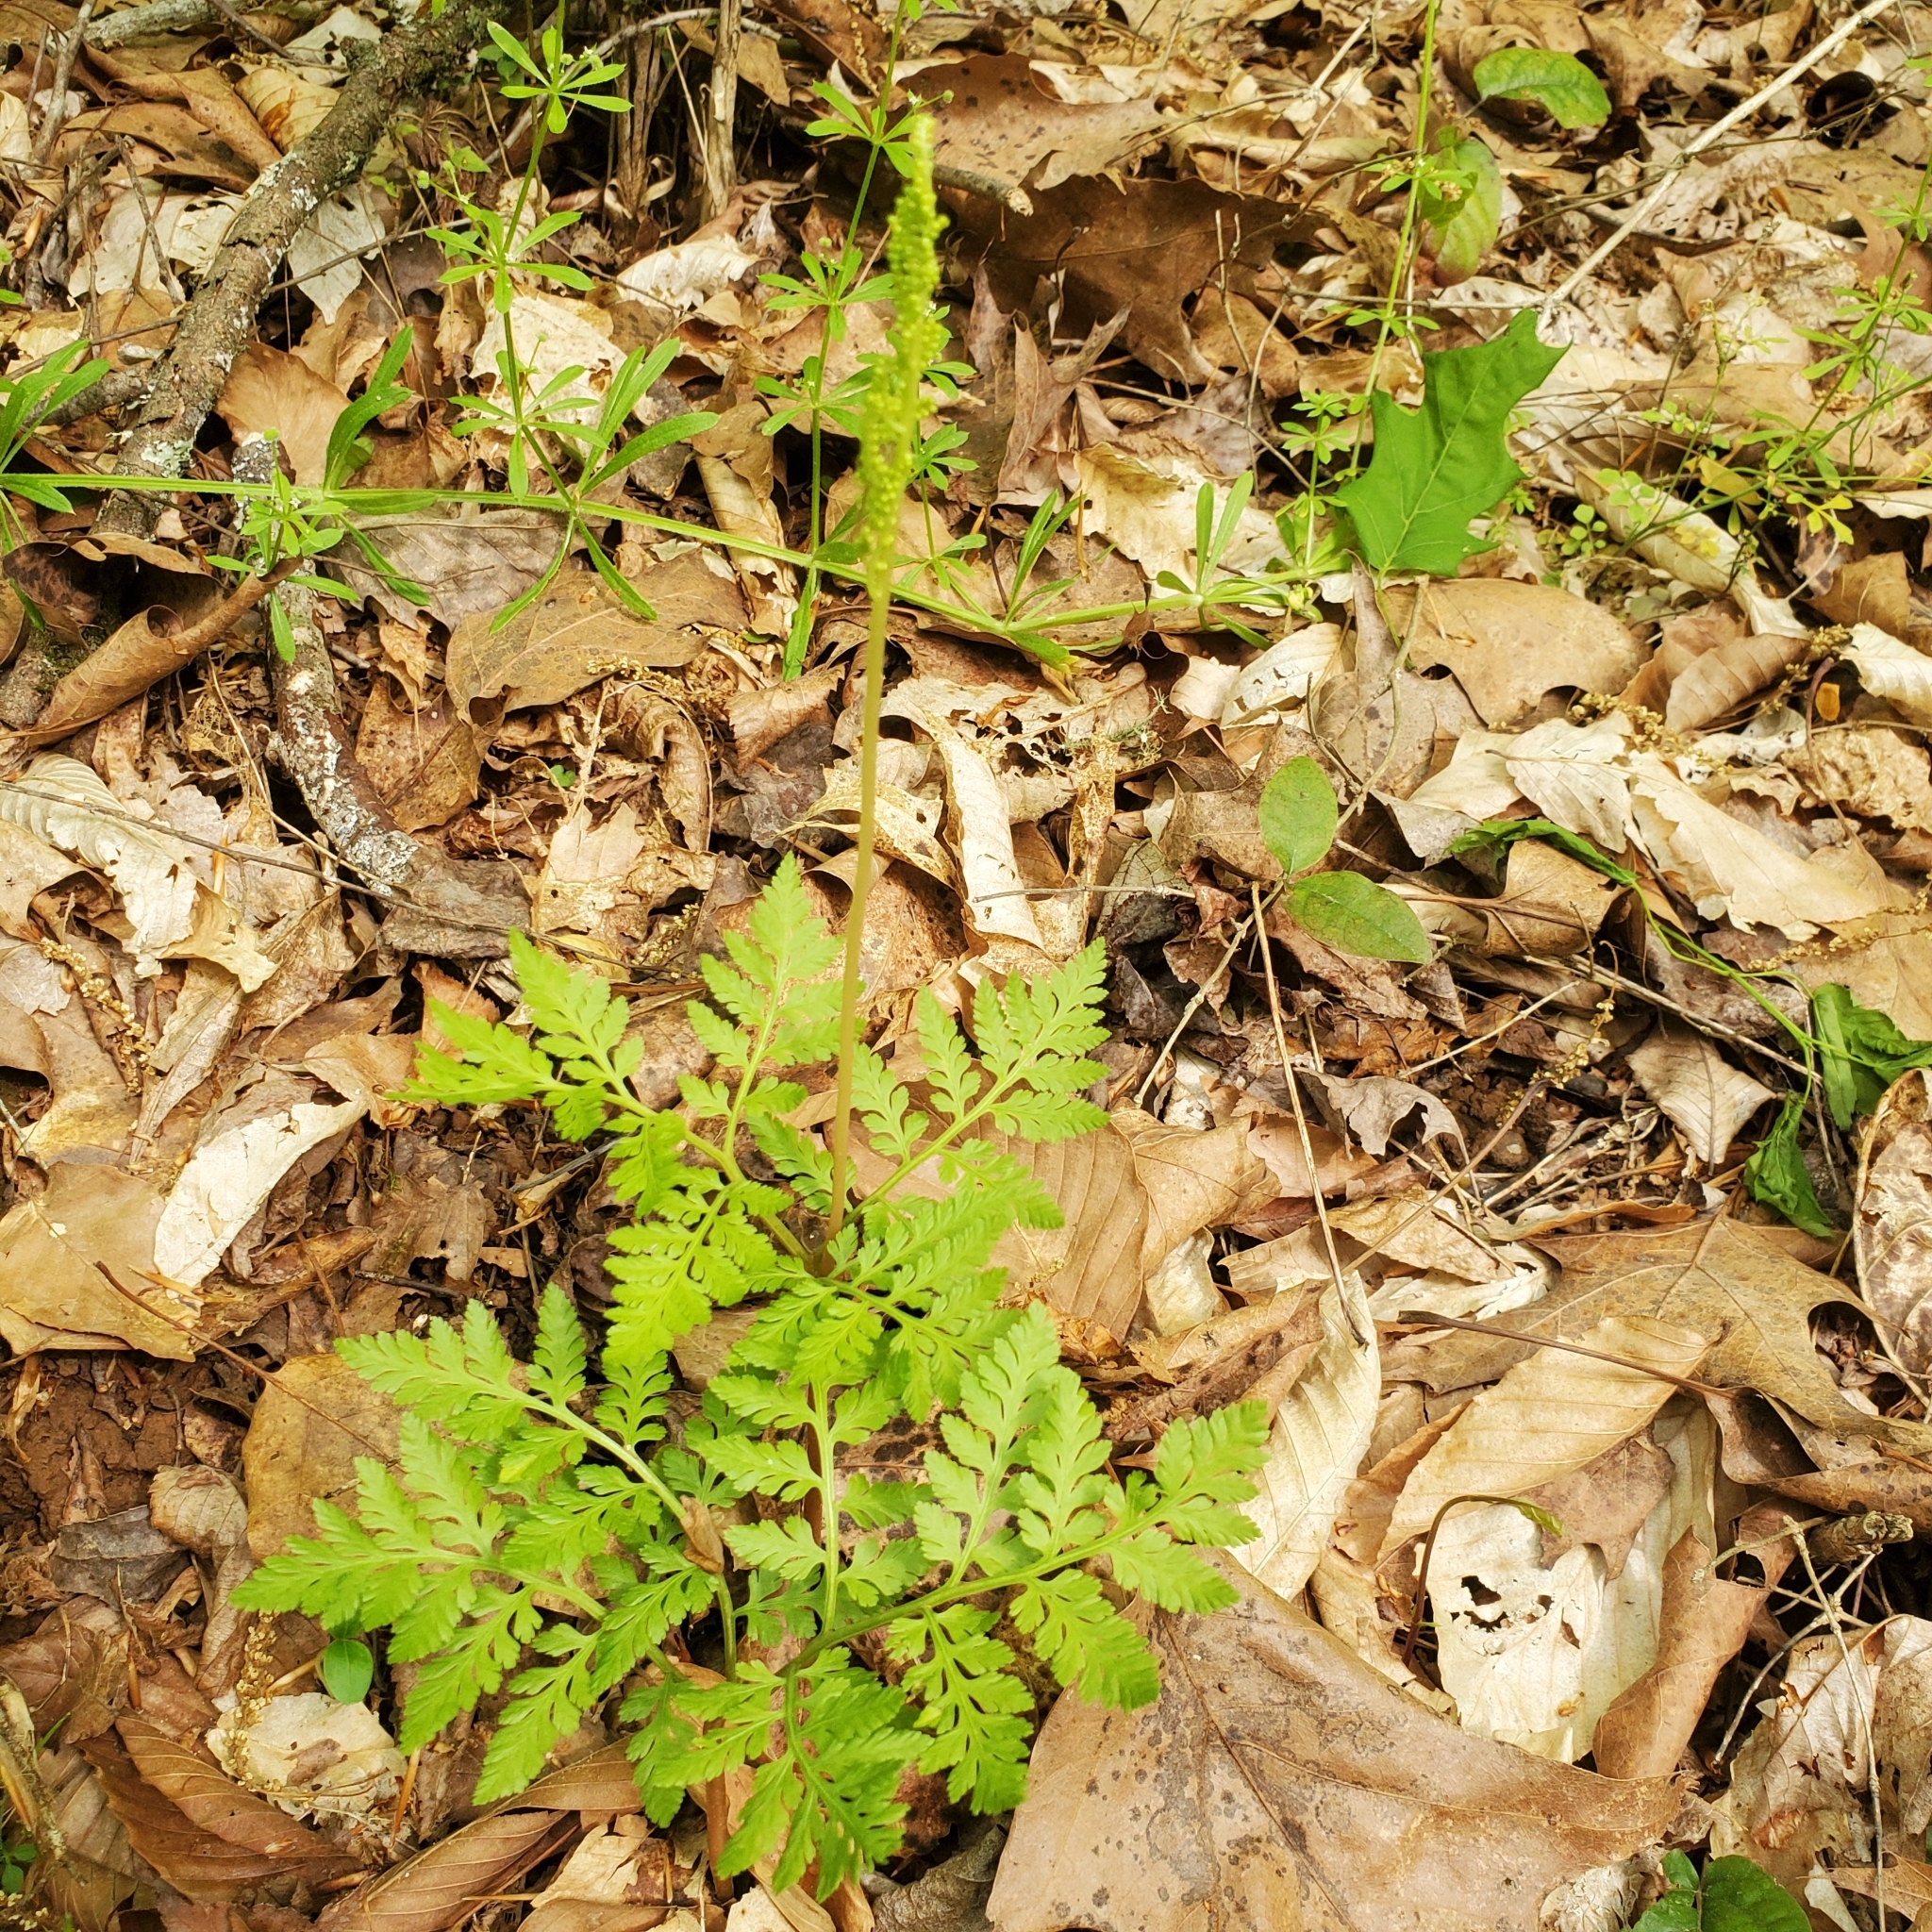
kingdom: Plantae
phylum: Tracheophyta
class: Polypodiopsida
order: Ophioglossales
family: Ophioglossaceae
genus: Botrypus
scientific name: Botrypus virginianus
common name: Common grapefern
